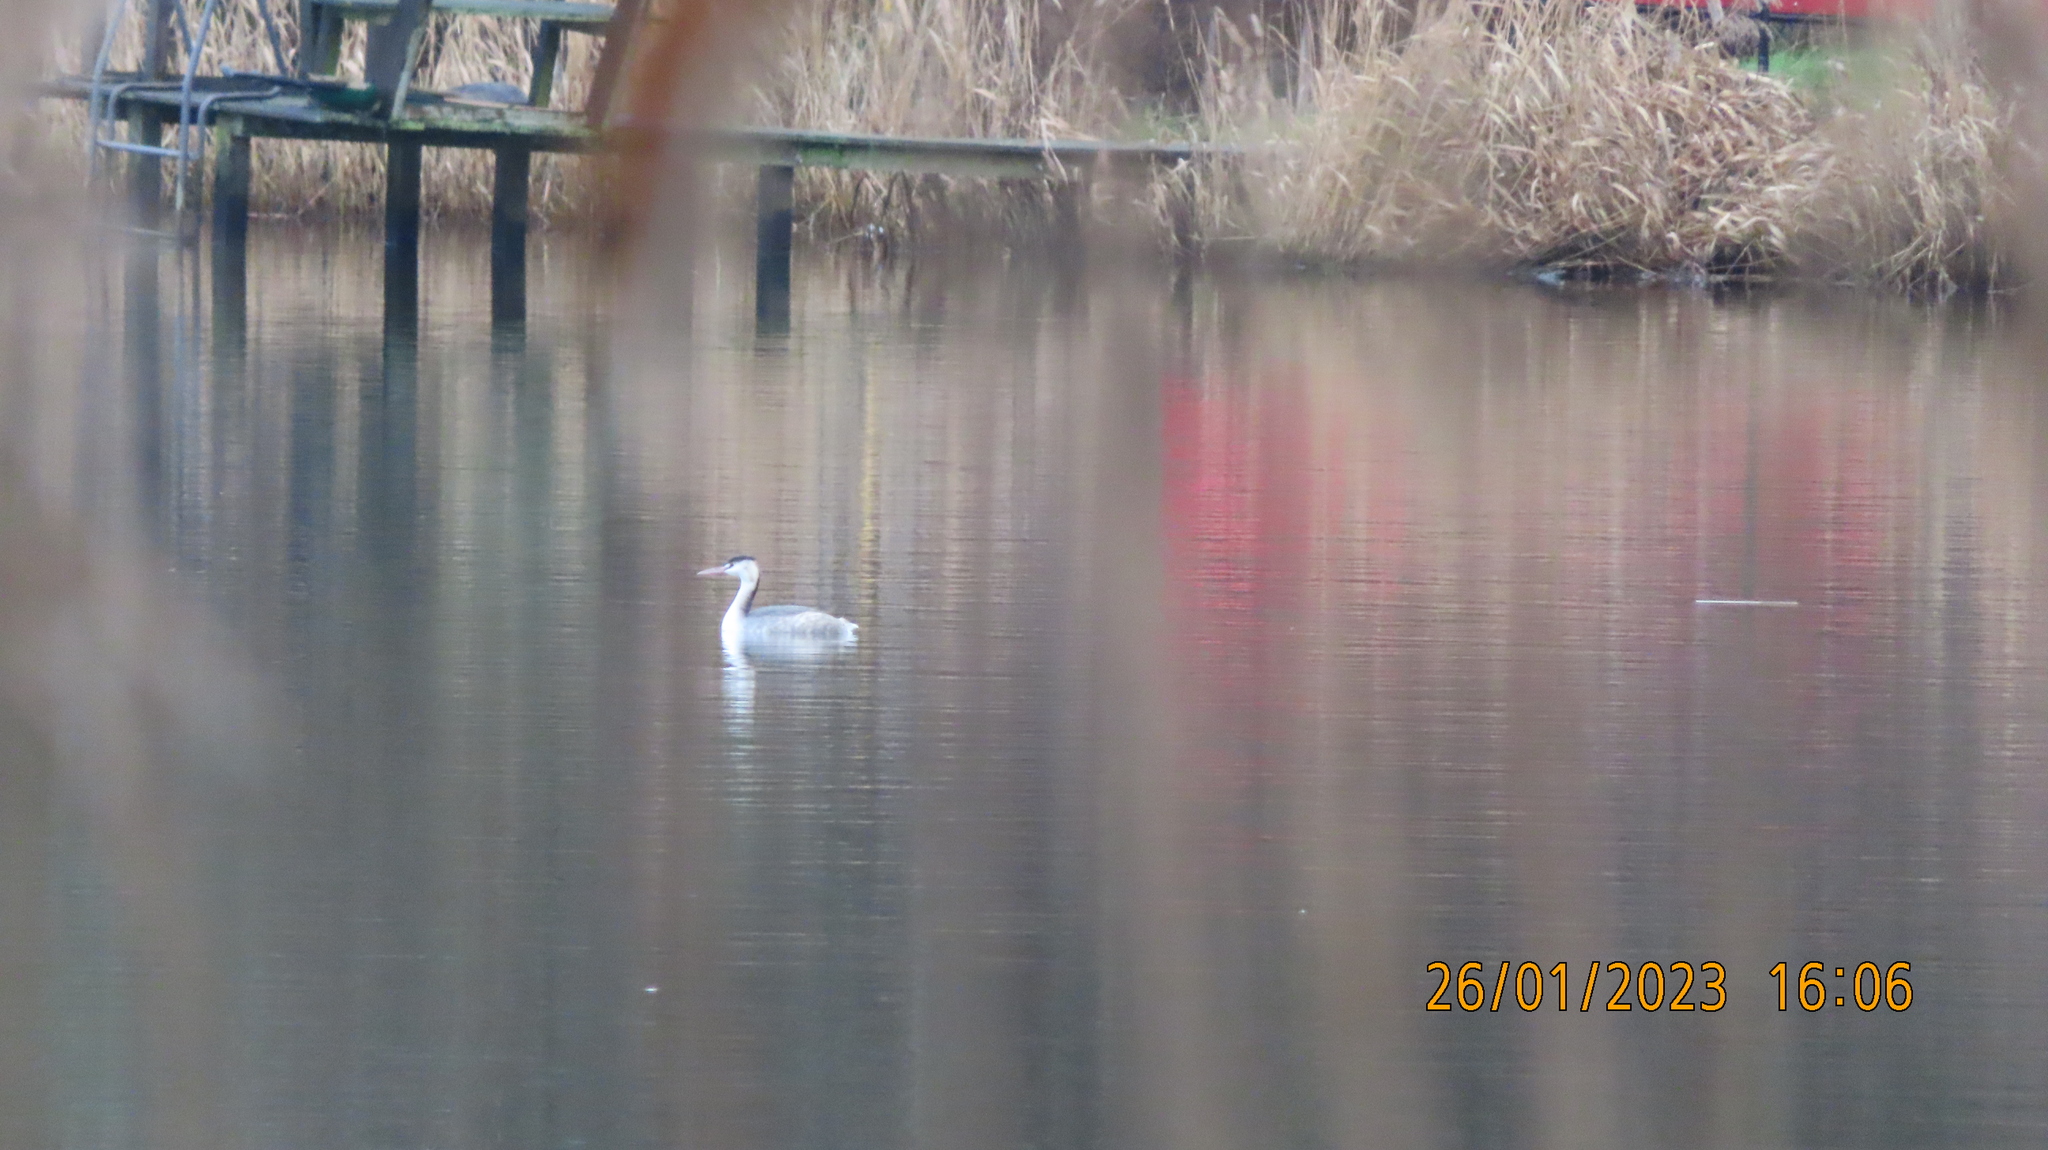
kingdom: Animalia
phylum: Chordata
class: Aves
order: Podicipediformes
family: Podicipedidae
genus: Podiceps
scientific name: Podiceps cristatus
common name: Great crested grebe
